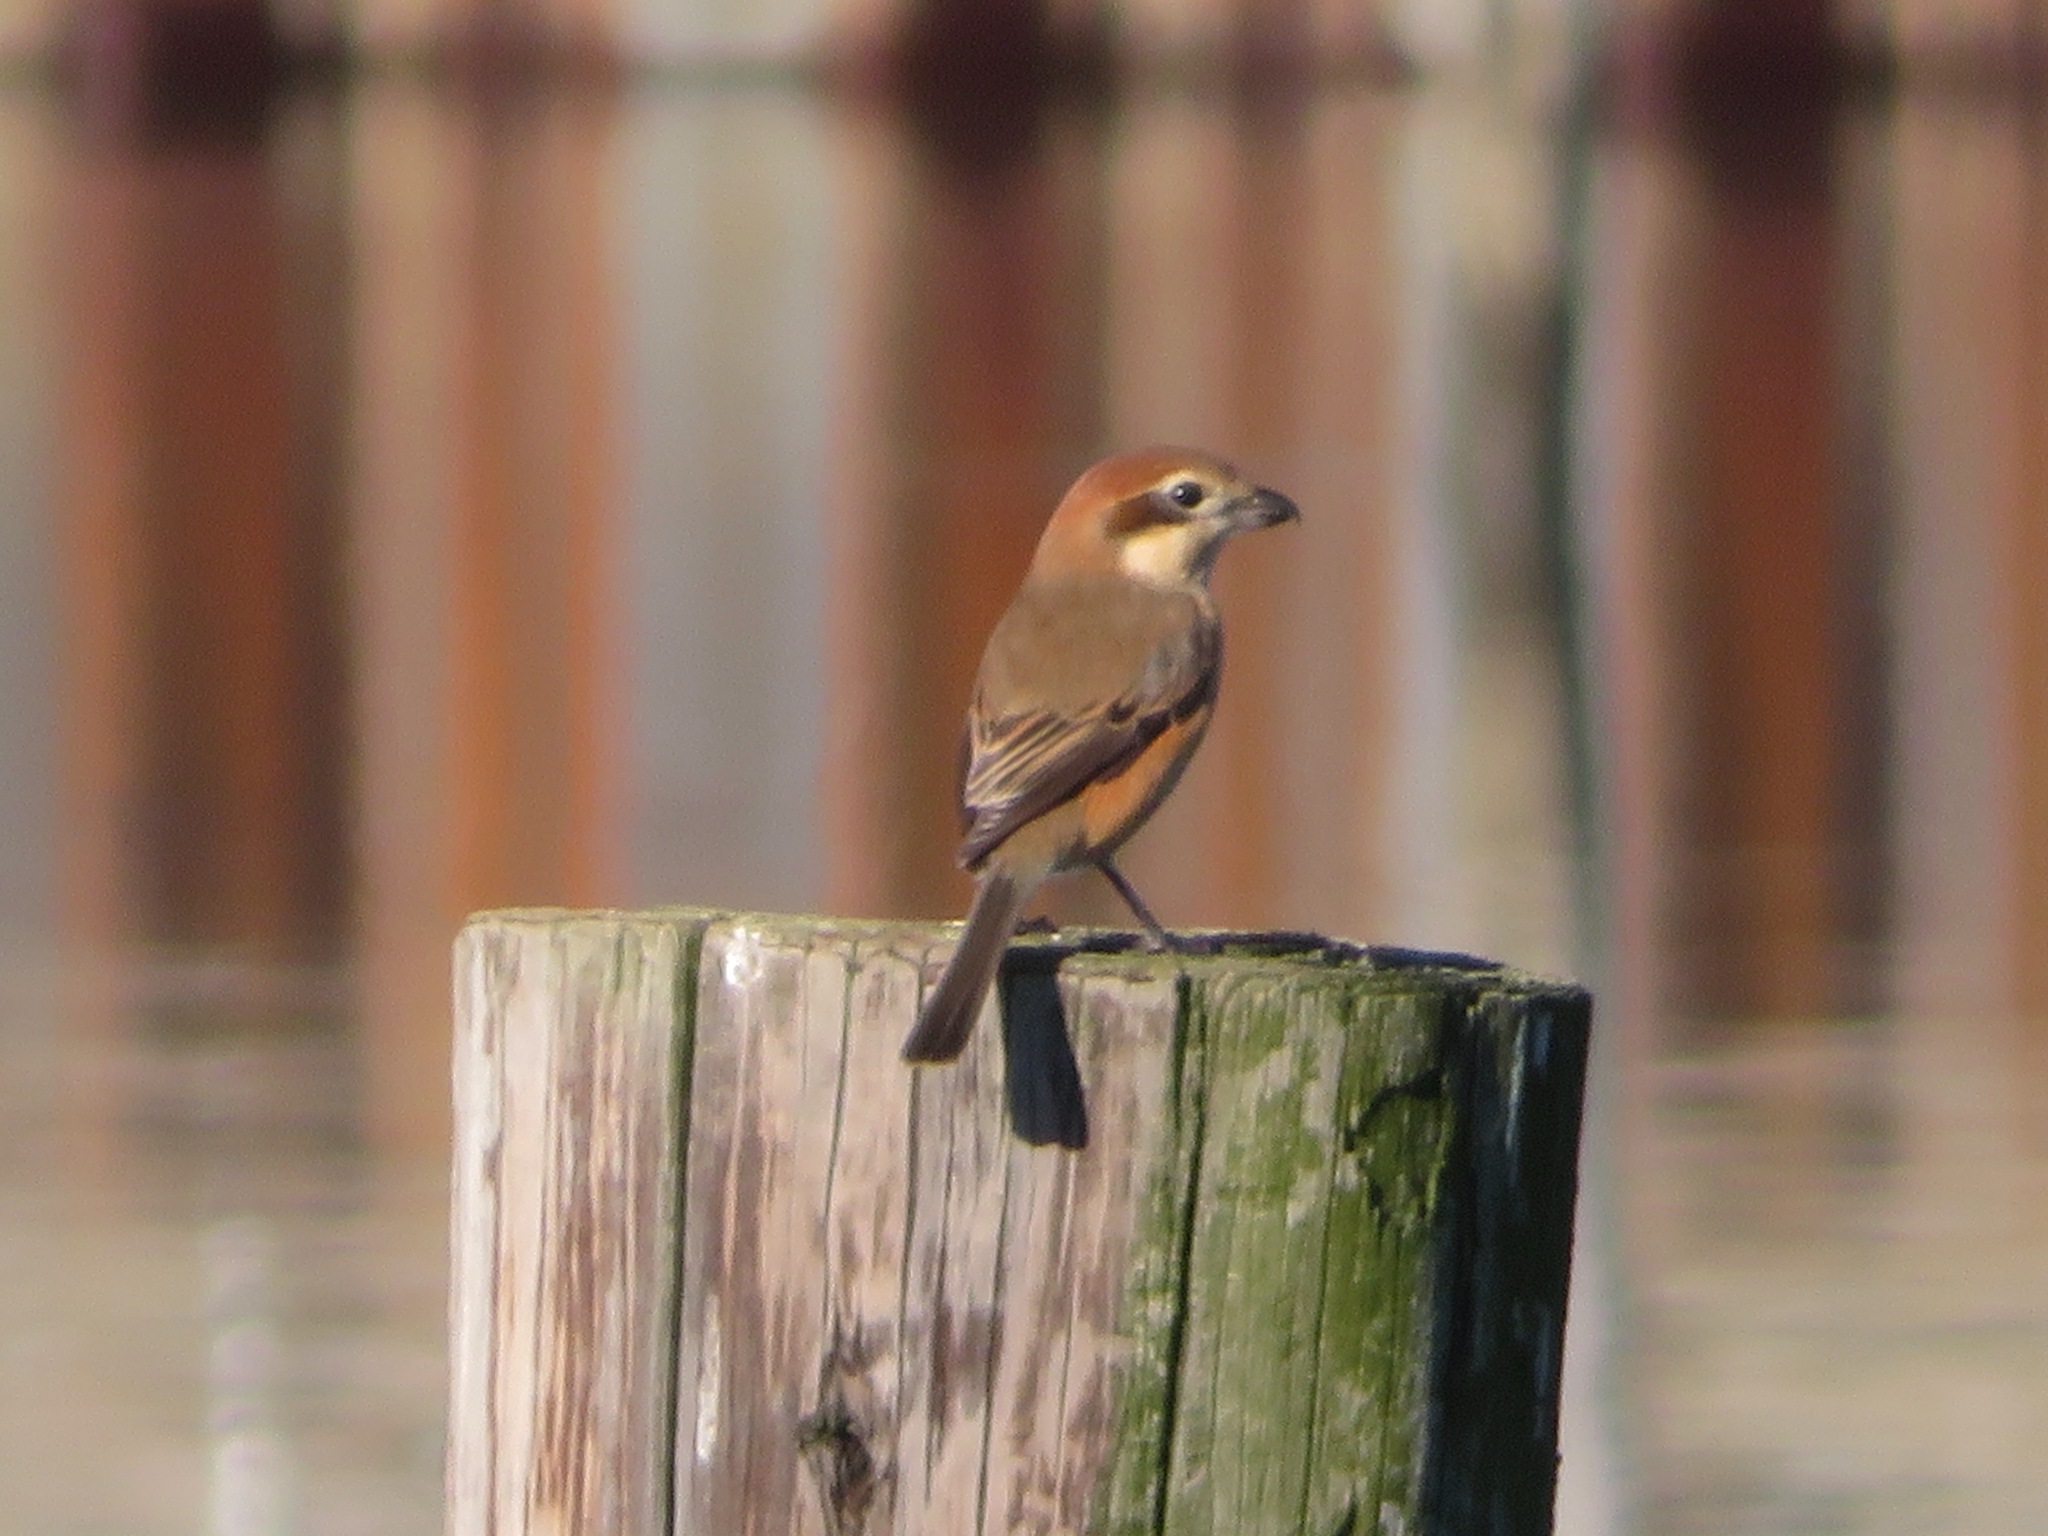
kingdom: Animalia
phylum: Chordata
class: Aves
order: Passeriformes
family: Laniidae
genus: Lanius
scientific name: Lanius bucephalus
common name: Bull-headed shrike
